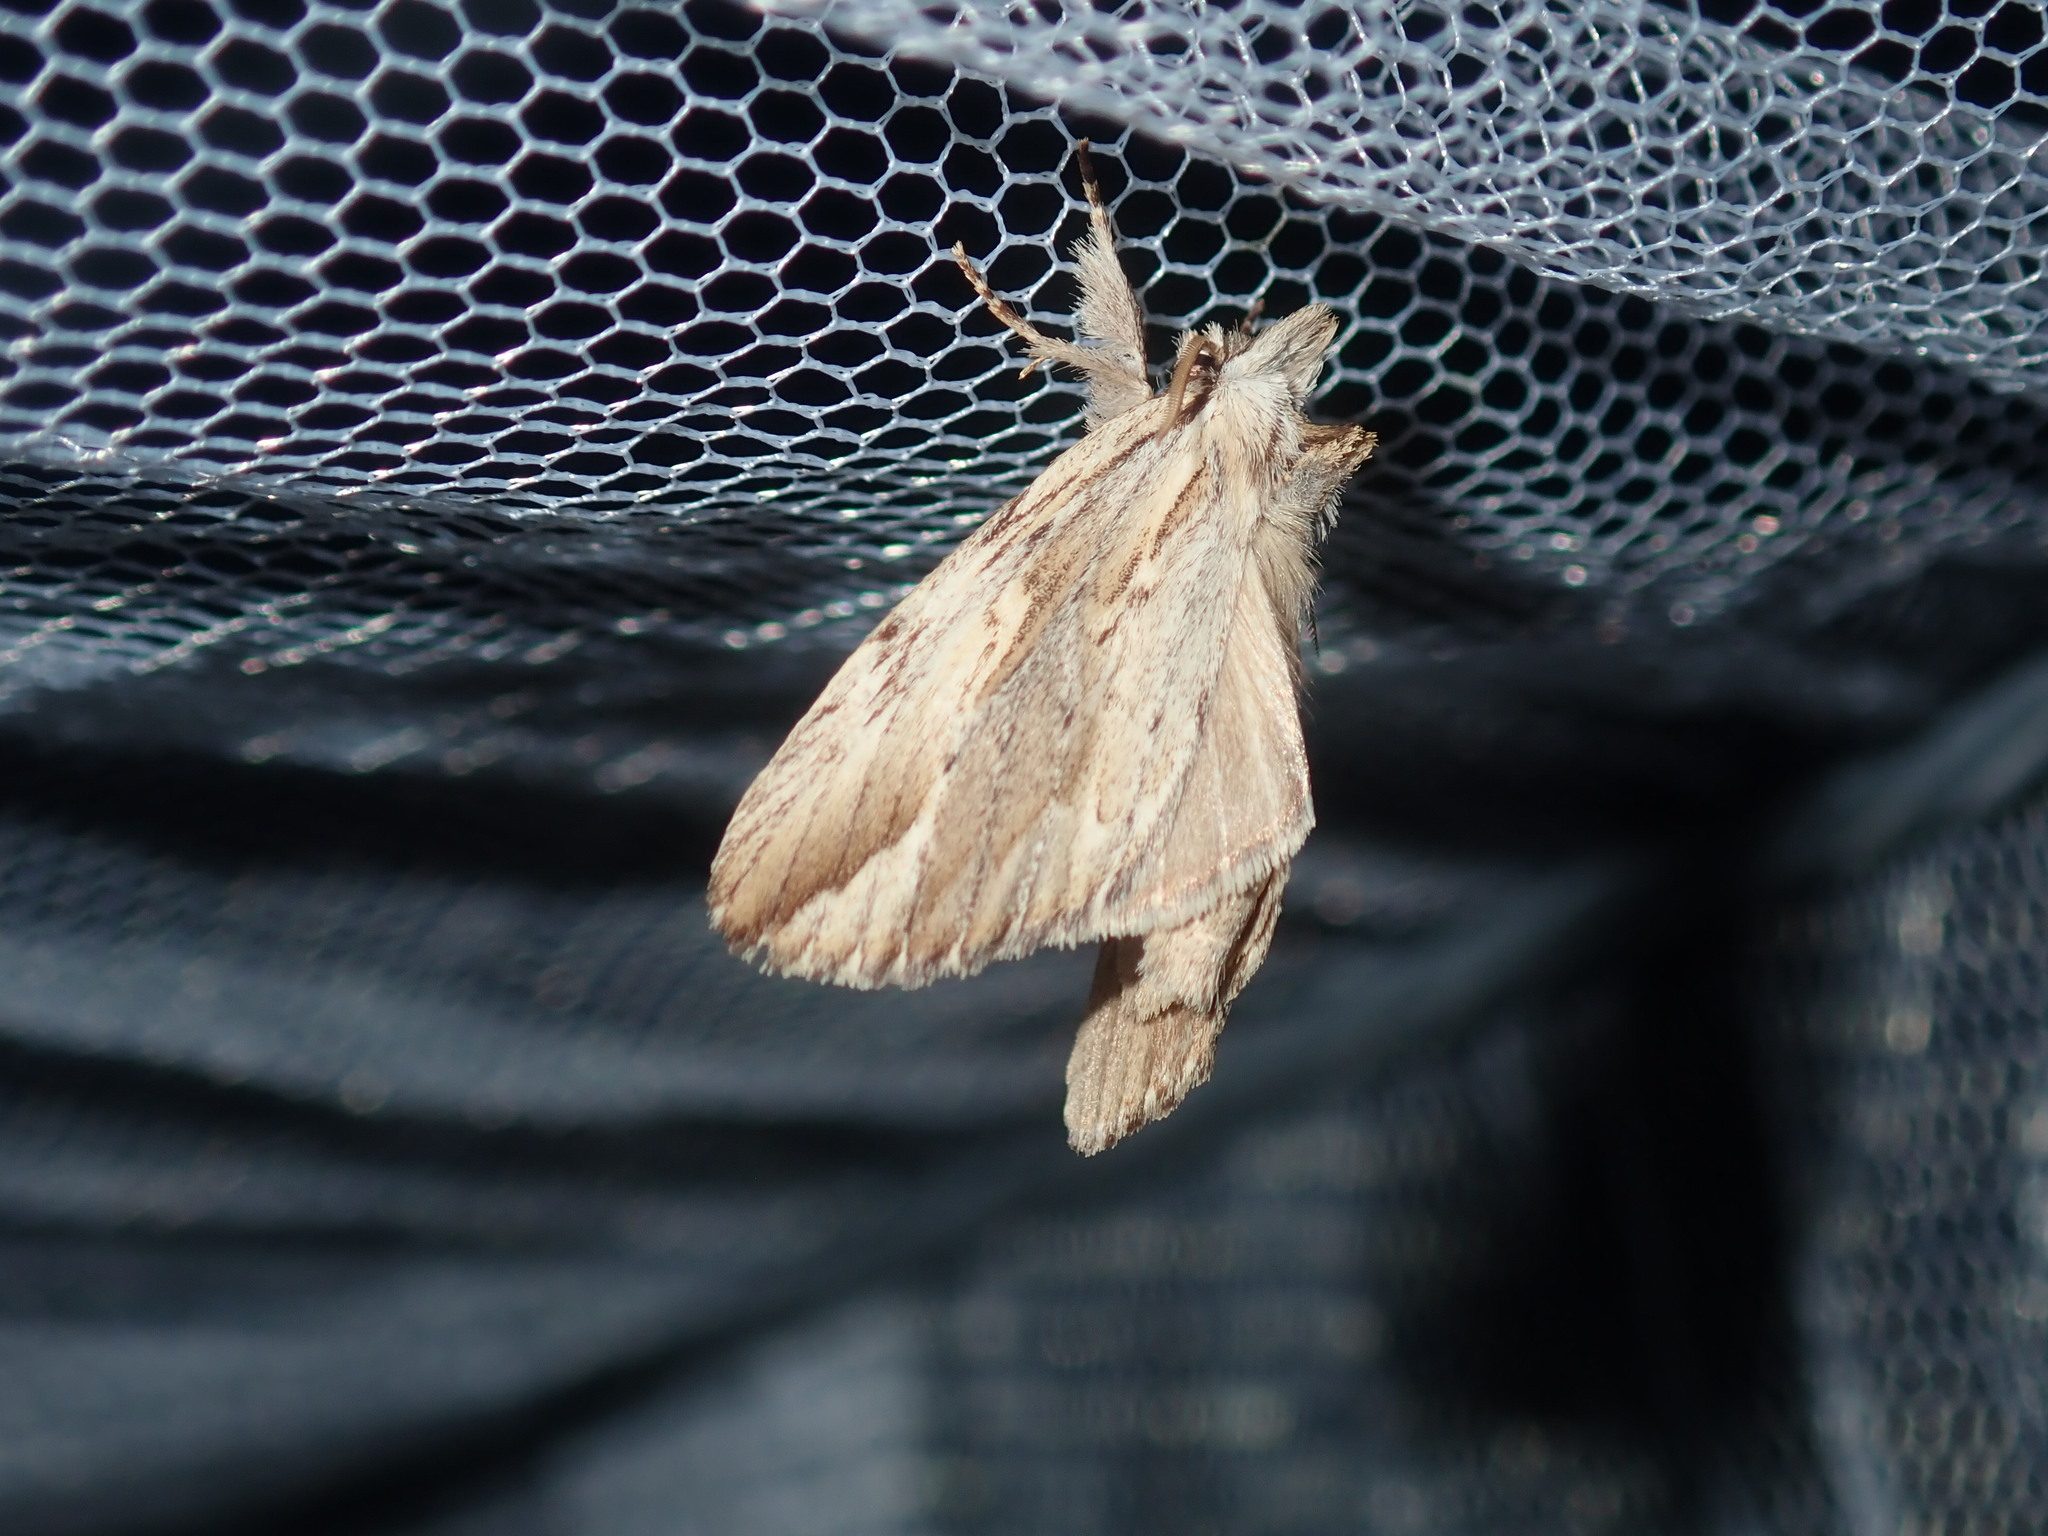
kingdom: Animalia
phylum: Arthropoda
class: Insecta
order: Lepidoptera
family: Notodontidae
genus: Ecnomodes
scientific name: Ecnomodes sagittaria
